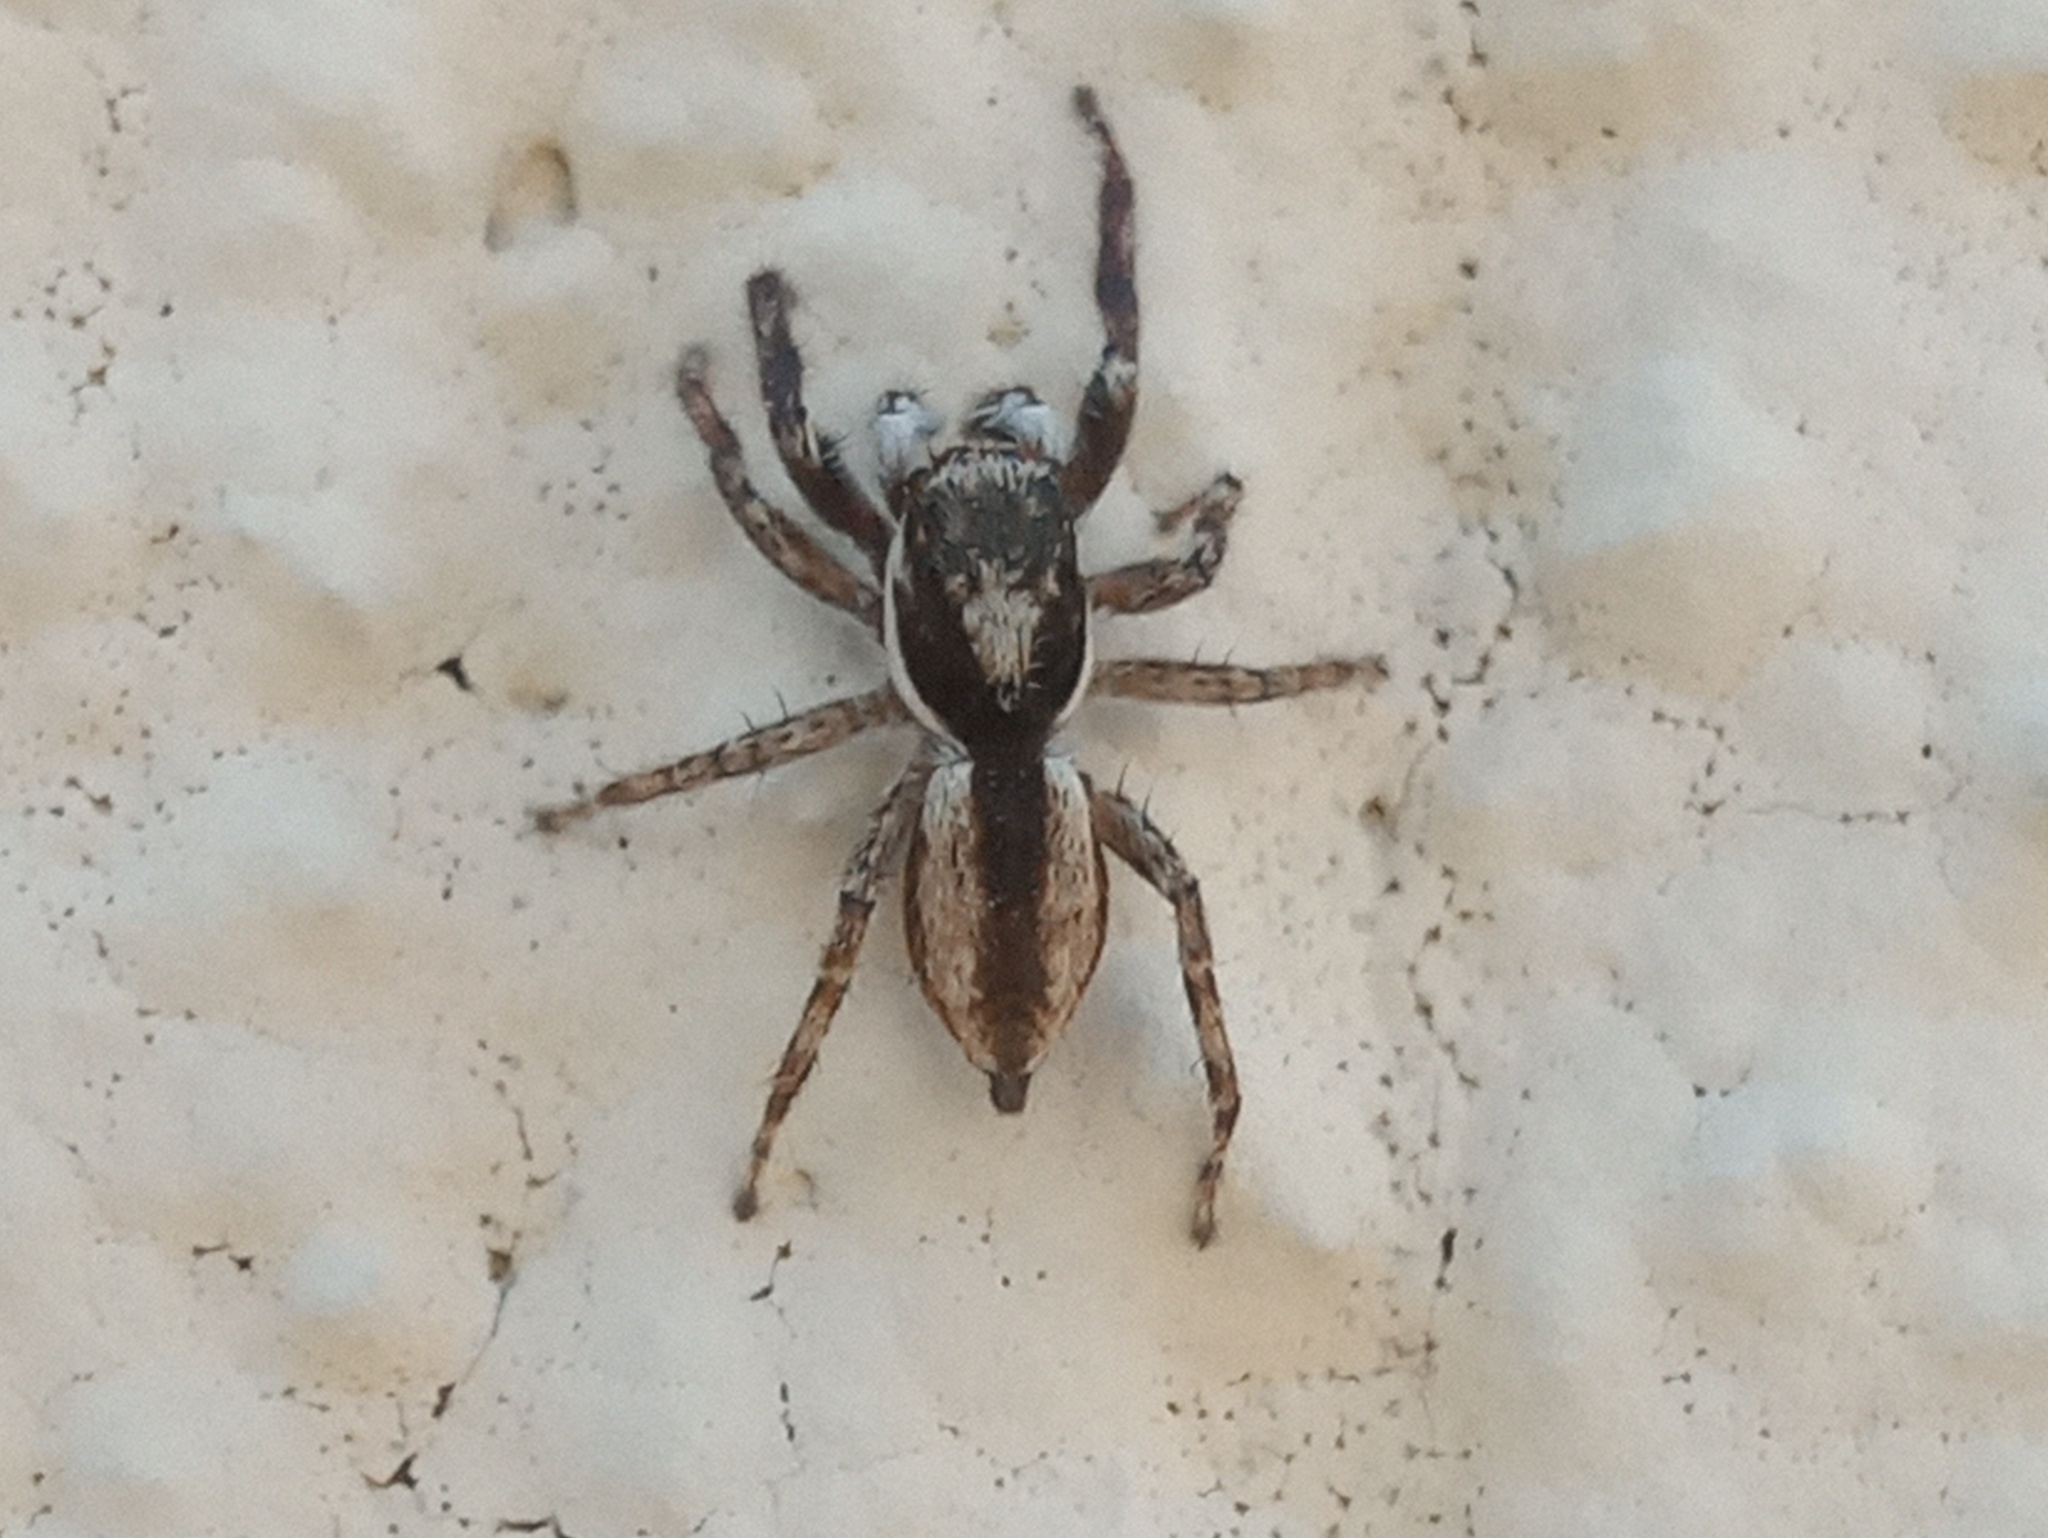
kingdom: Animalia
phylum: Arthropoda
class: Arachnida
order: Araneae
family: Salticidae
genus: Menemerus
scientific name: Menemerus bivittatus
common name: Gray wall jumper
